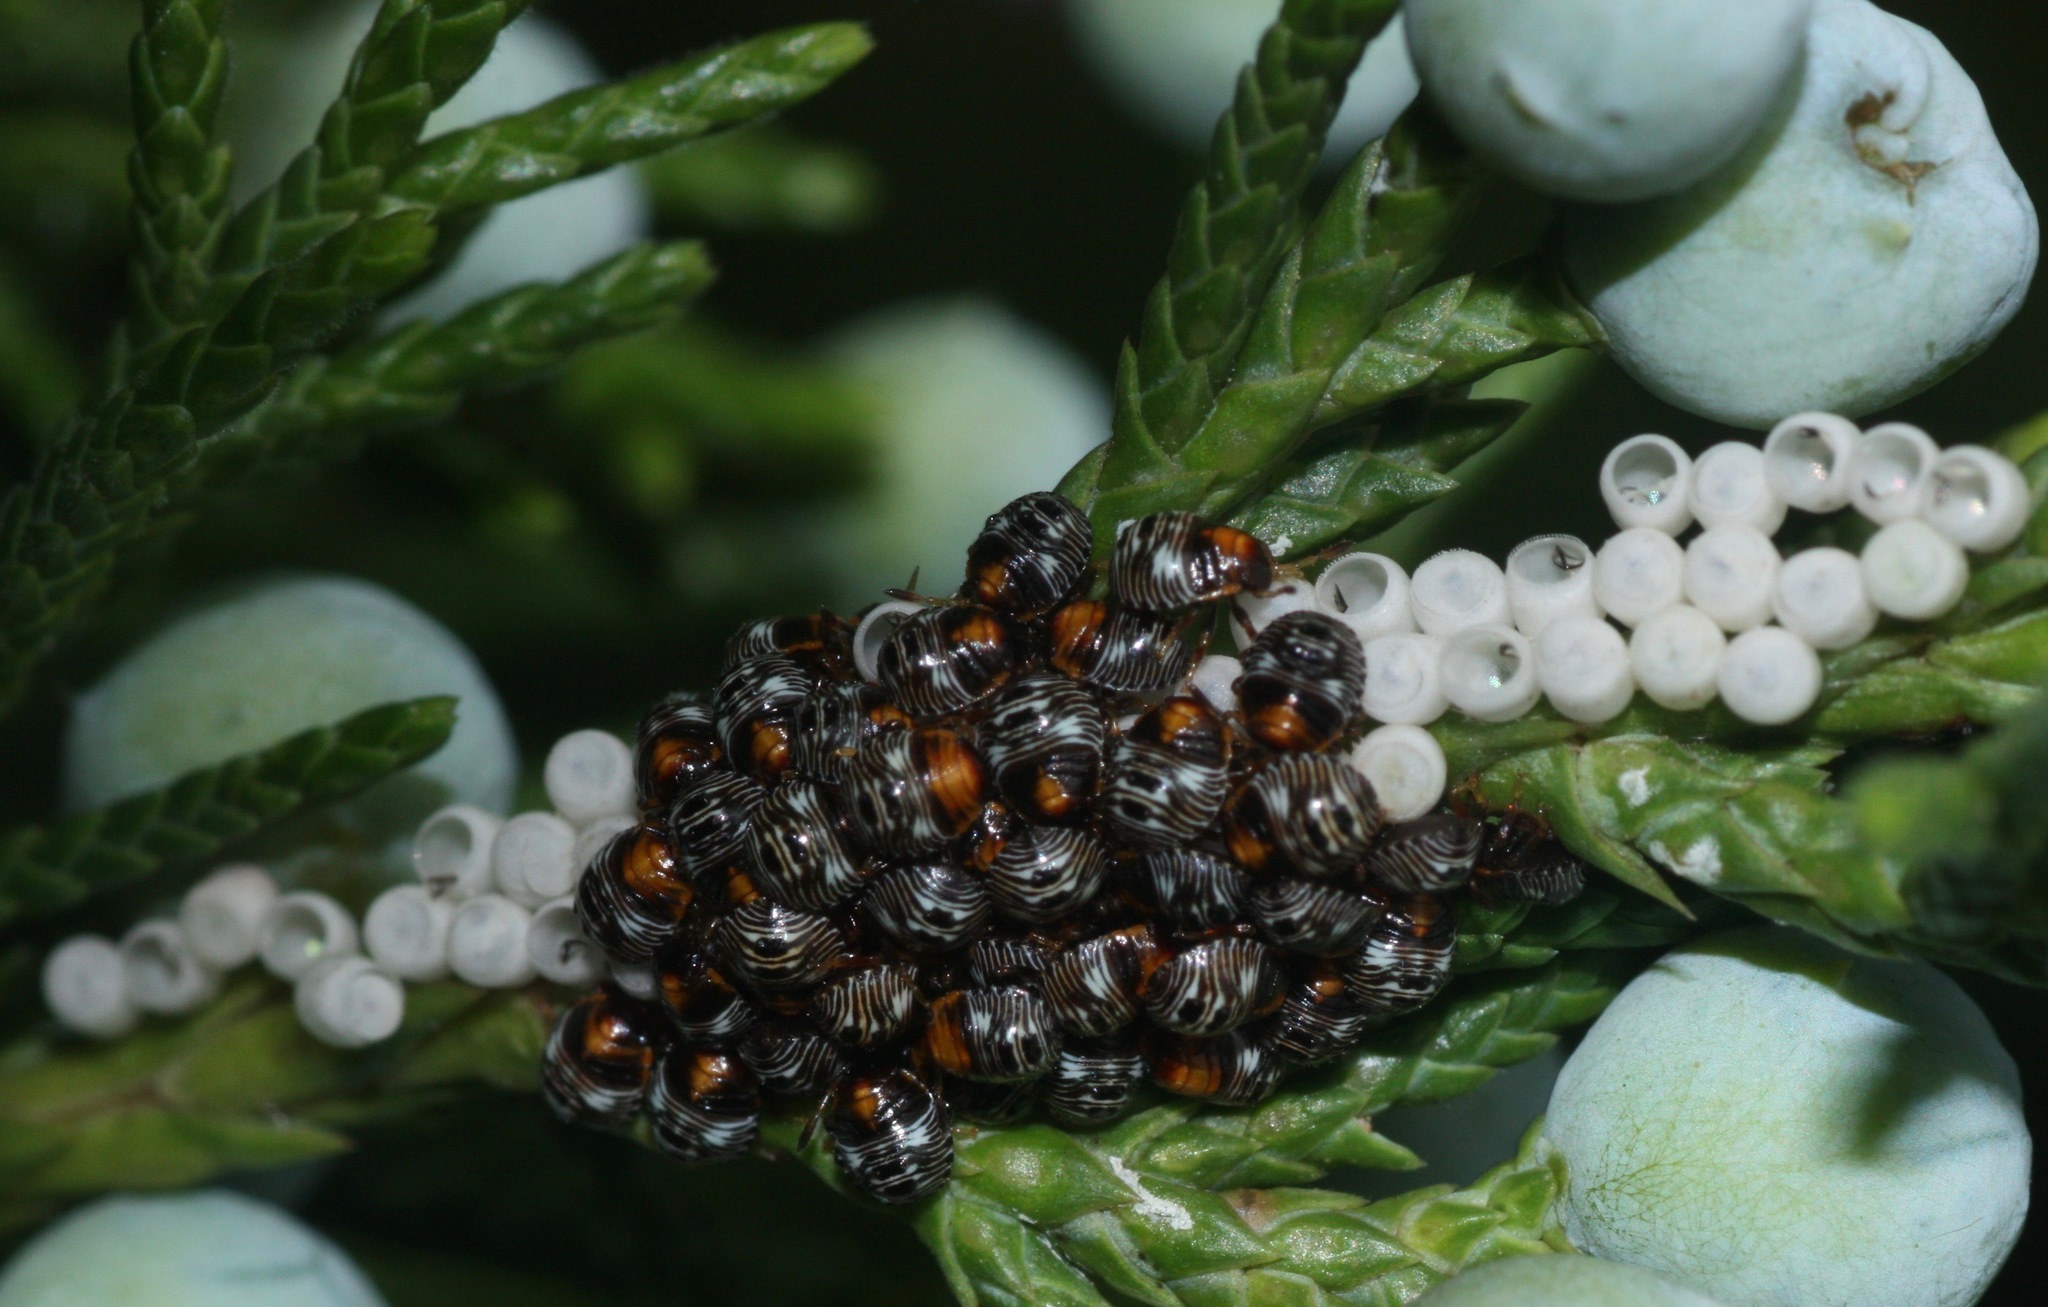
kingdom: Animalia
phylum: Arthropoda
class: Insecta
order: Hemiptera
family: Pentatomidae
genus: Chinavia
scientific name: Chinavia hilaris
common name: Green stink bug
